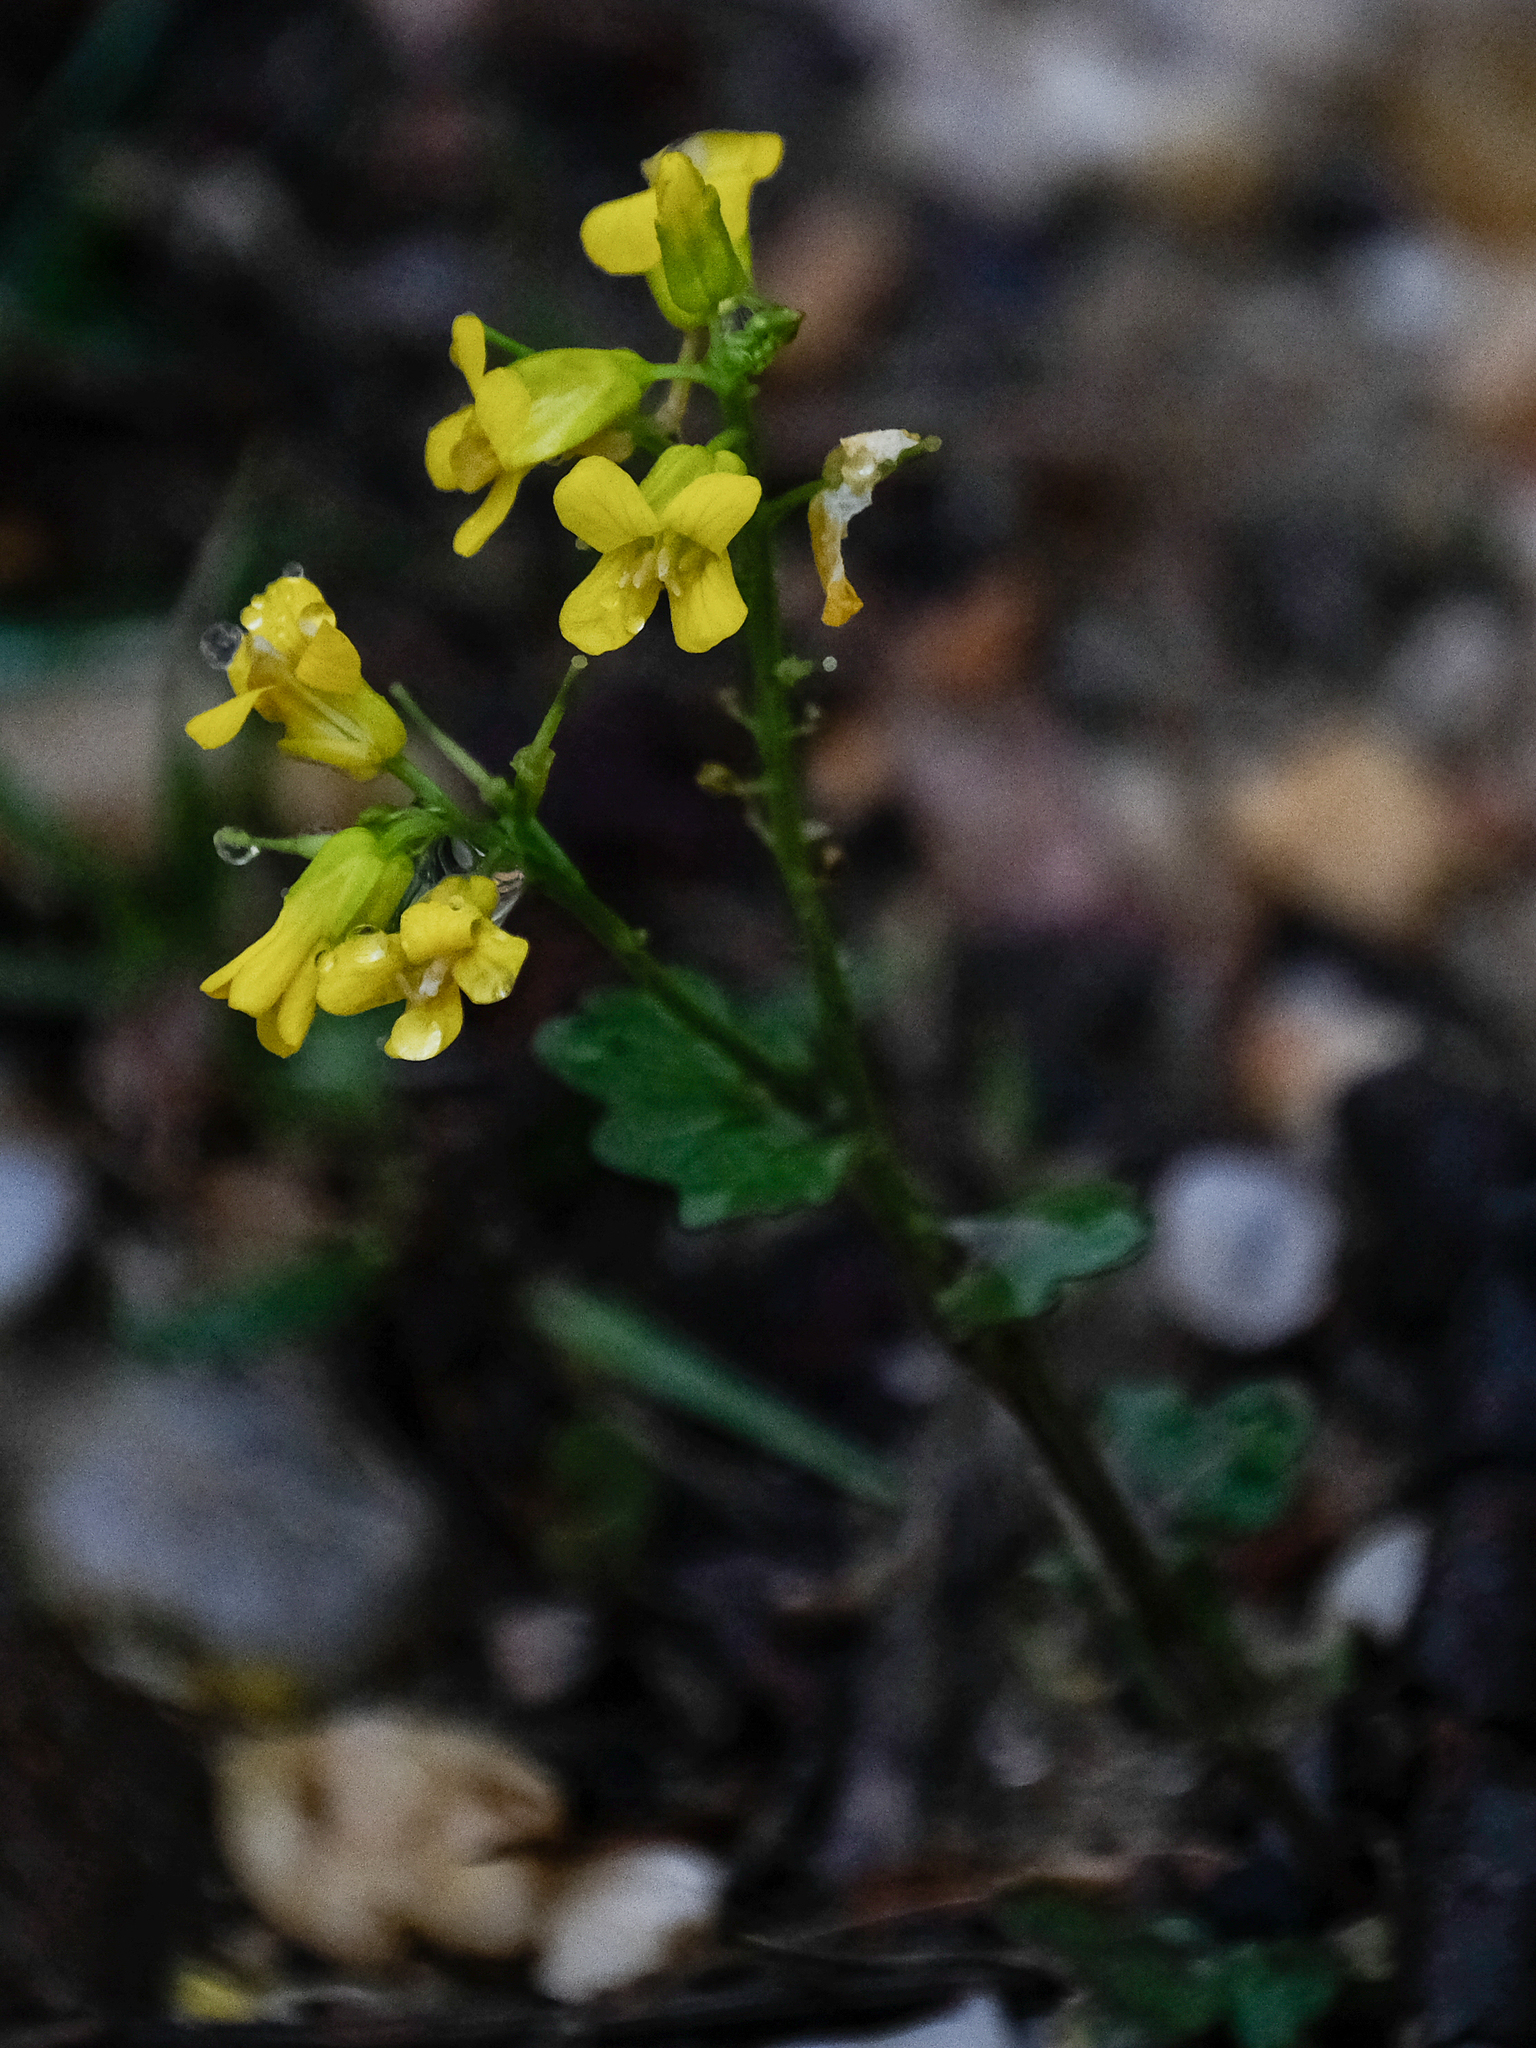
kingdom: Plantae
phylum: Tracheophyta
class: Magnoliopsida
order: Brassicales
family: Brassicaceae
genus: Barbarea
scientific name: Barbarea vulgaris
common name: Cressy-greens
